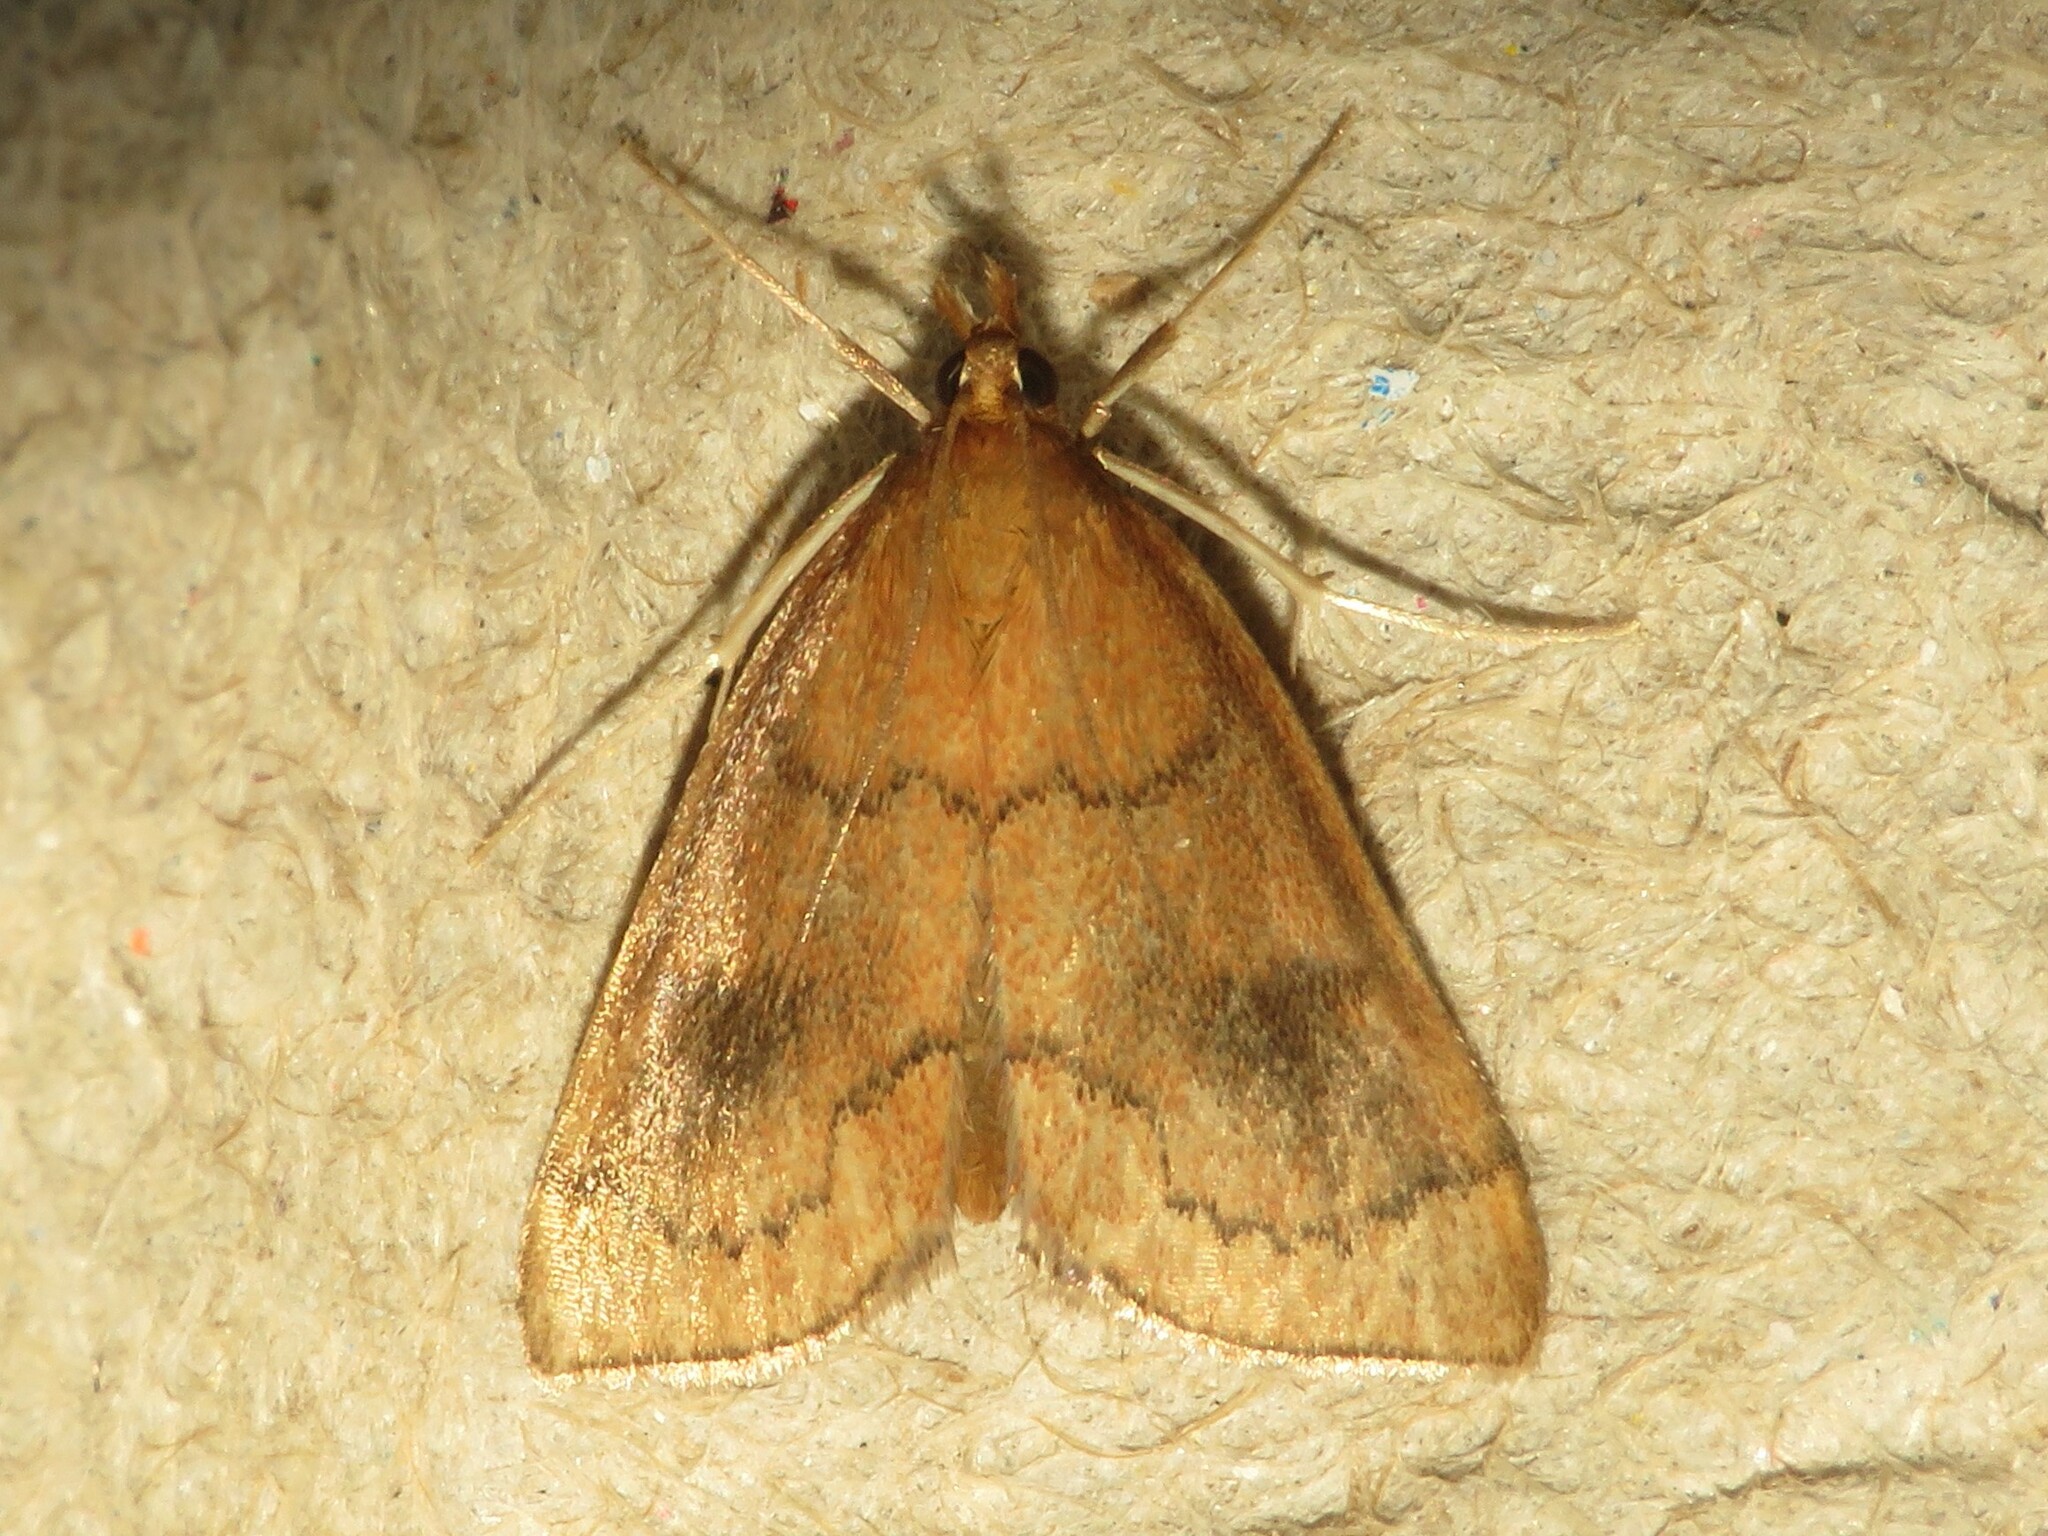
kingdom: Animalia
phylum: Arthropoda
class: Insecta
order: Lepidoptera
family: Crambidae
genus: Fumibotys
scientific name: Fumibotys fumalis
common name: Mint root borer moth
